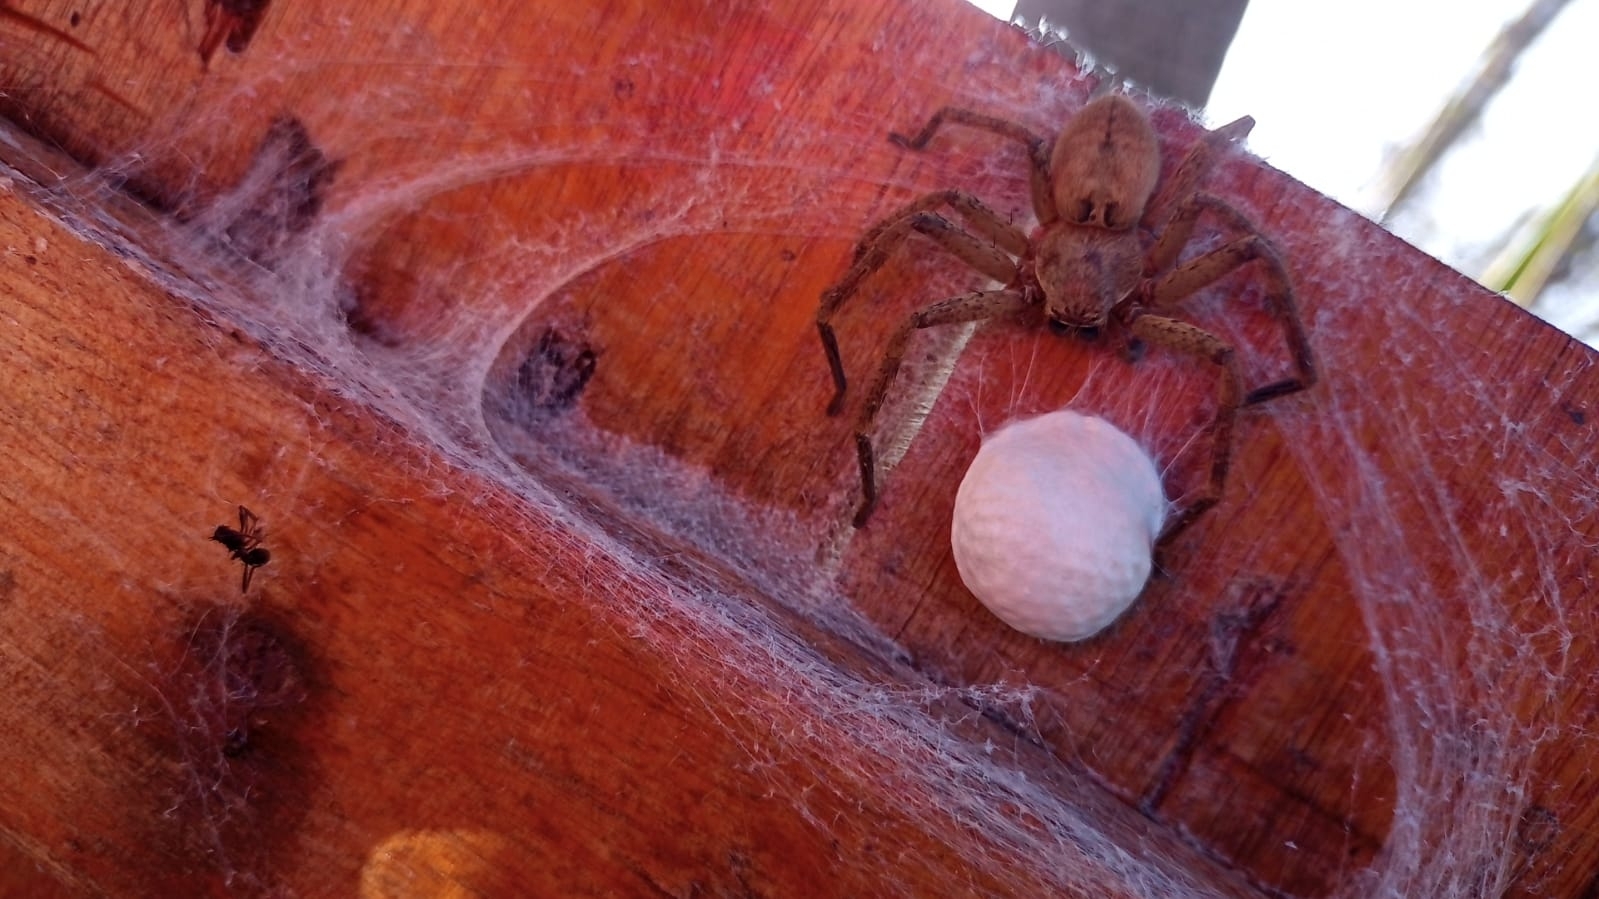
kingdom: Animalia
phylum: Arthropoda
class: Arachnida
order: Araneae
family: Sparassidae
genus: Polybetes
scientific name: Polybetes rapidus
